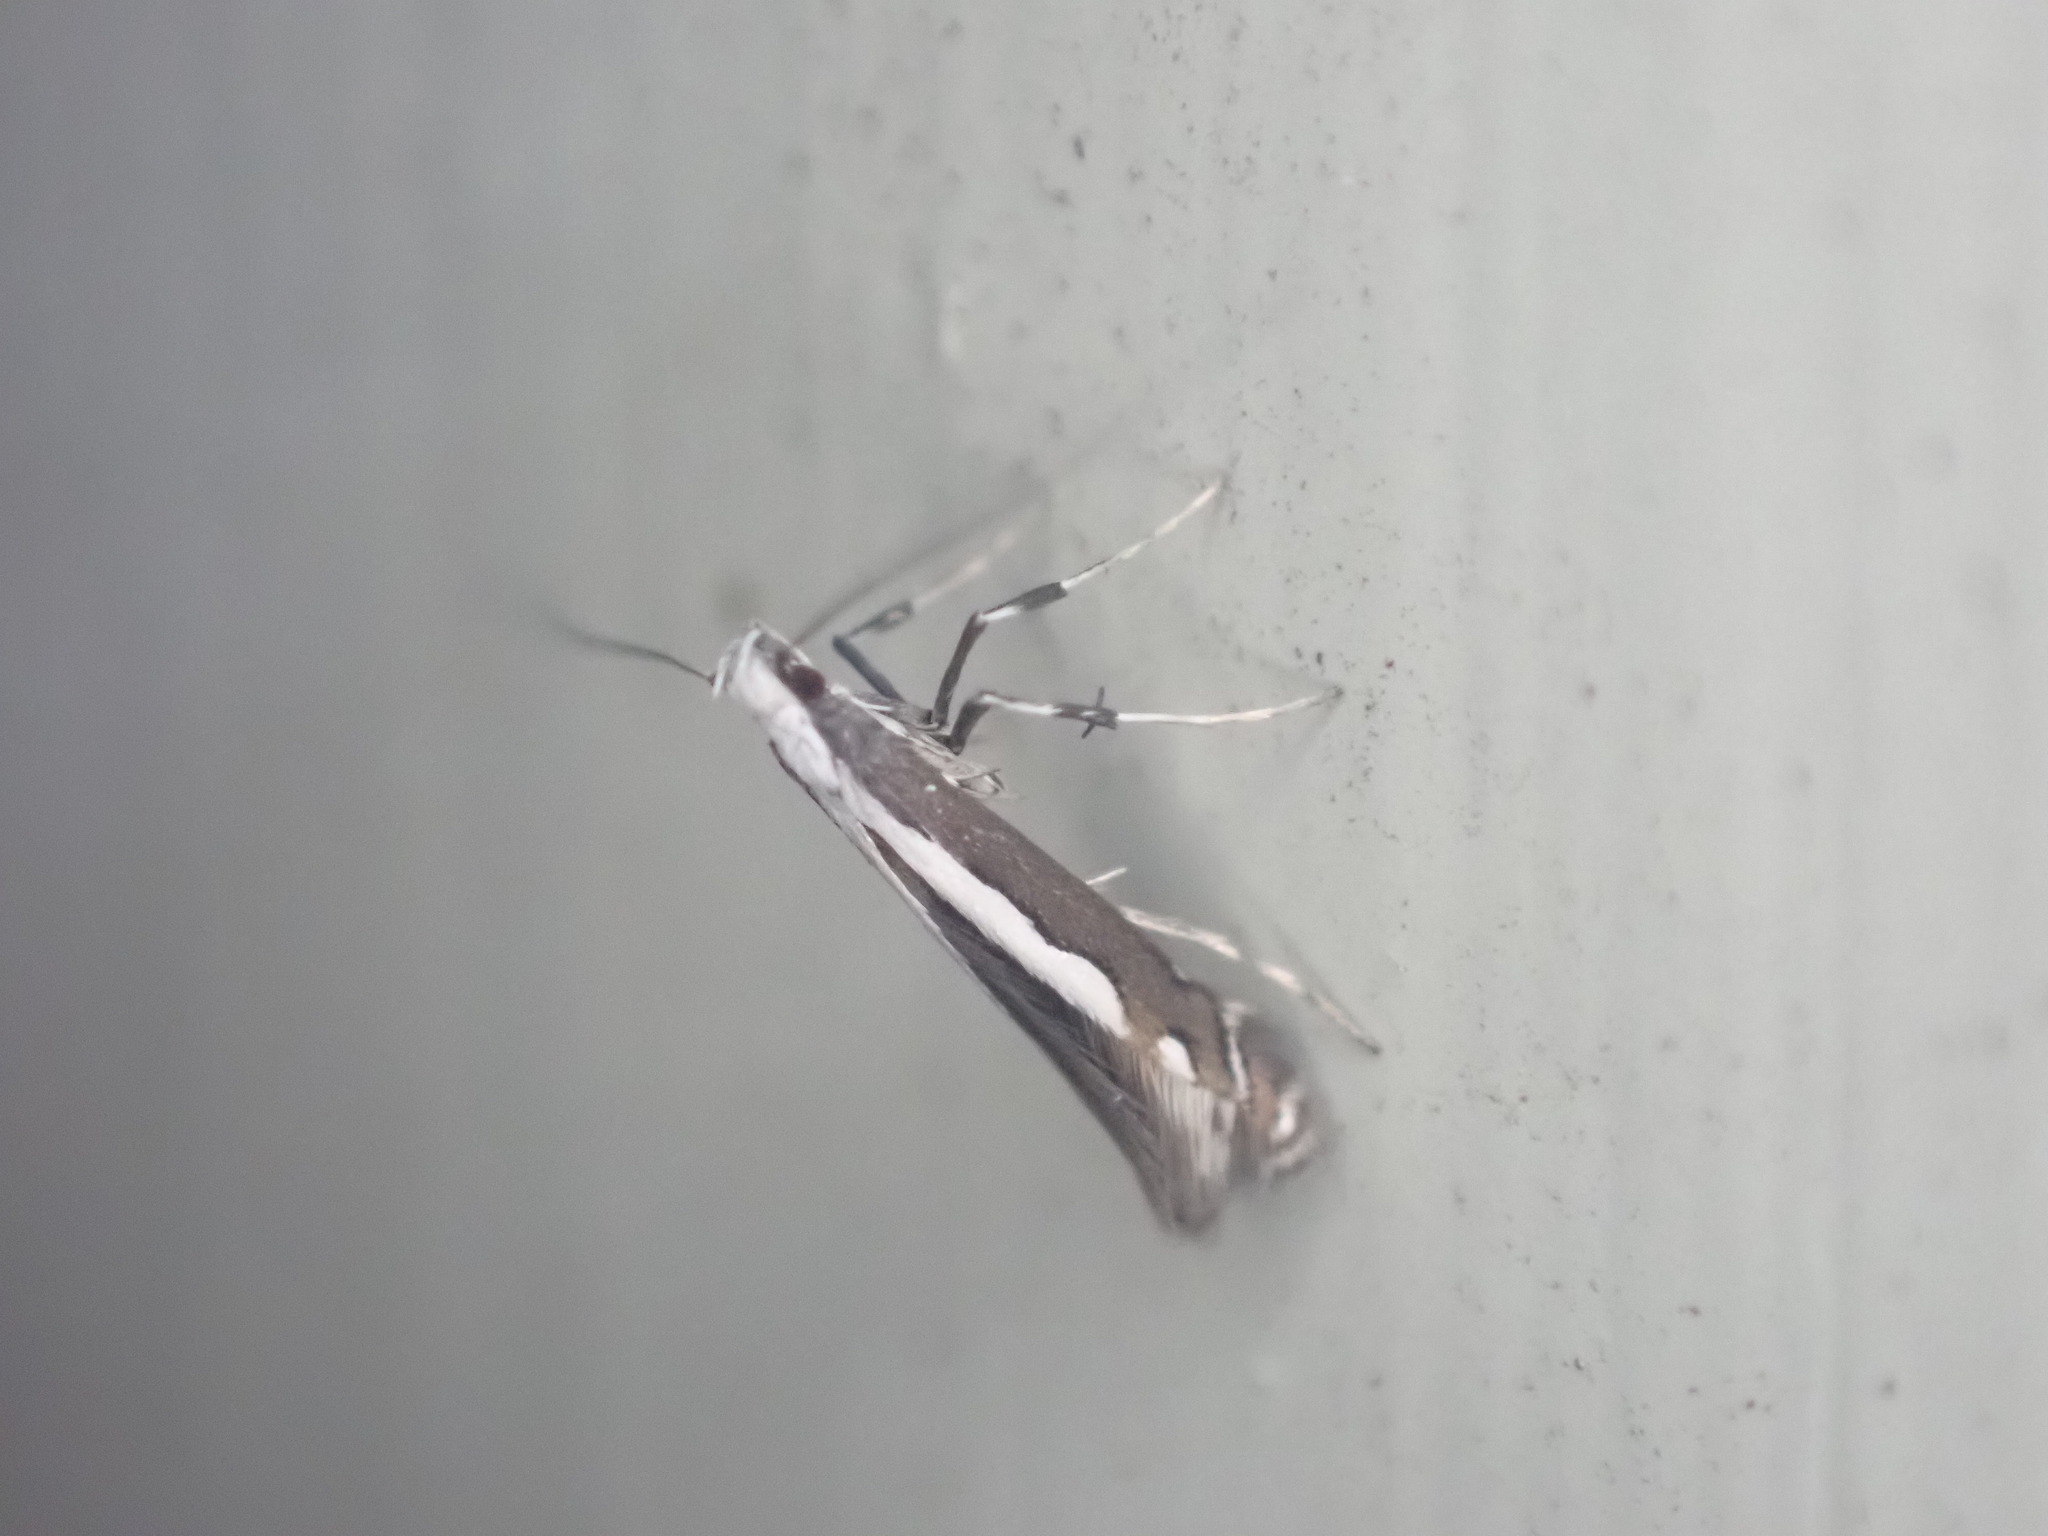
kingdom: Animalia
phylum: Arthropoda
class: Insecta
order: Lepidoptera
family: Gracillariidae
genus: Dialectica
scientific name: Dialectica scalariella
